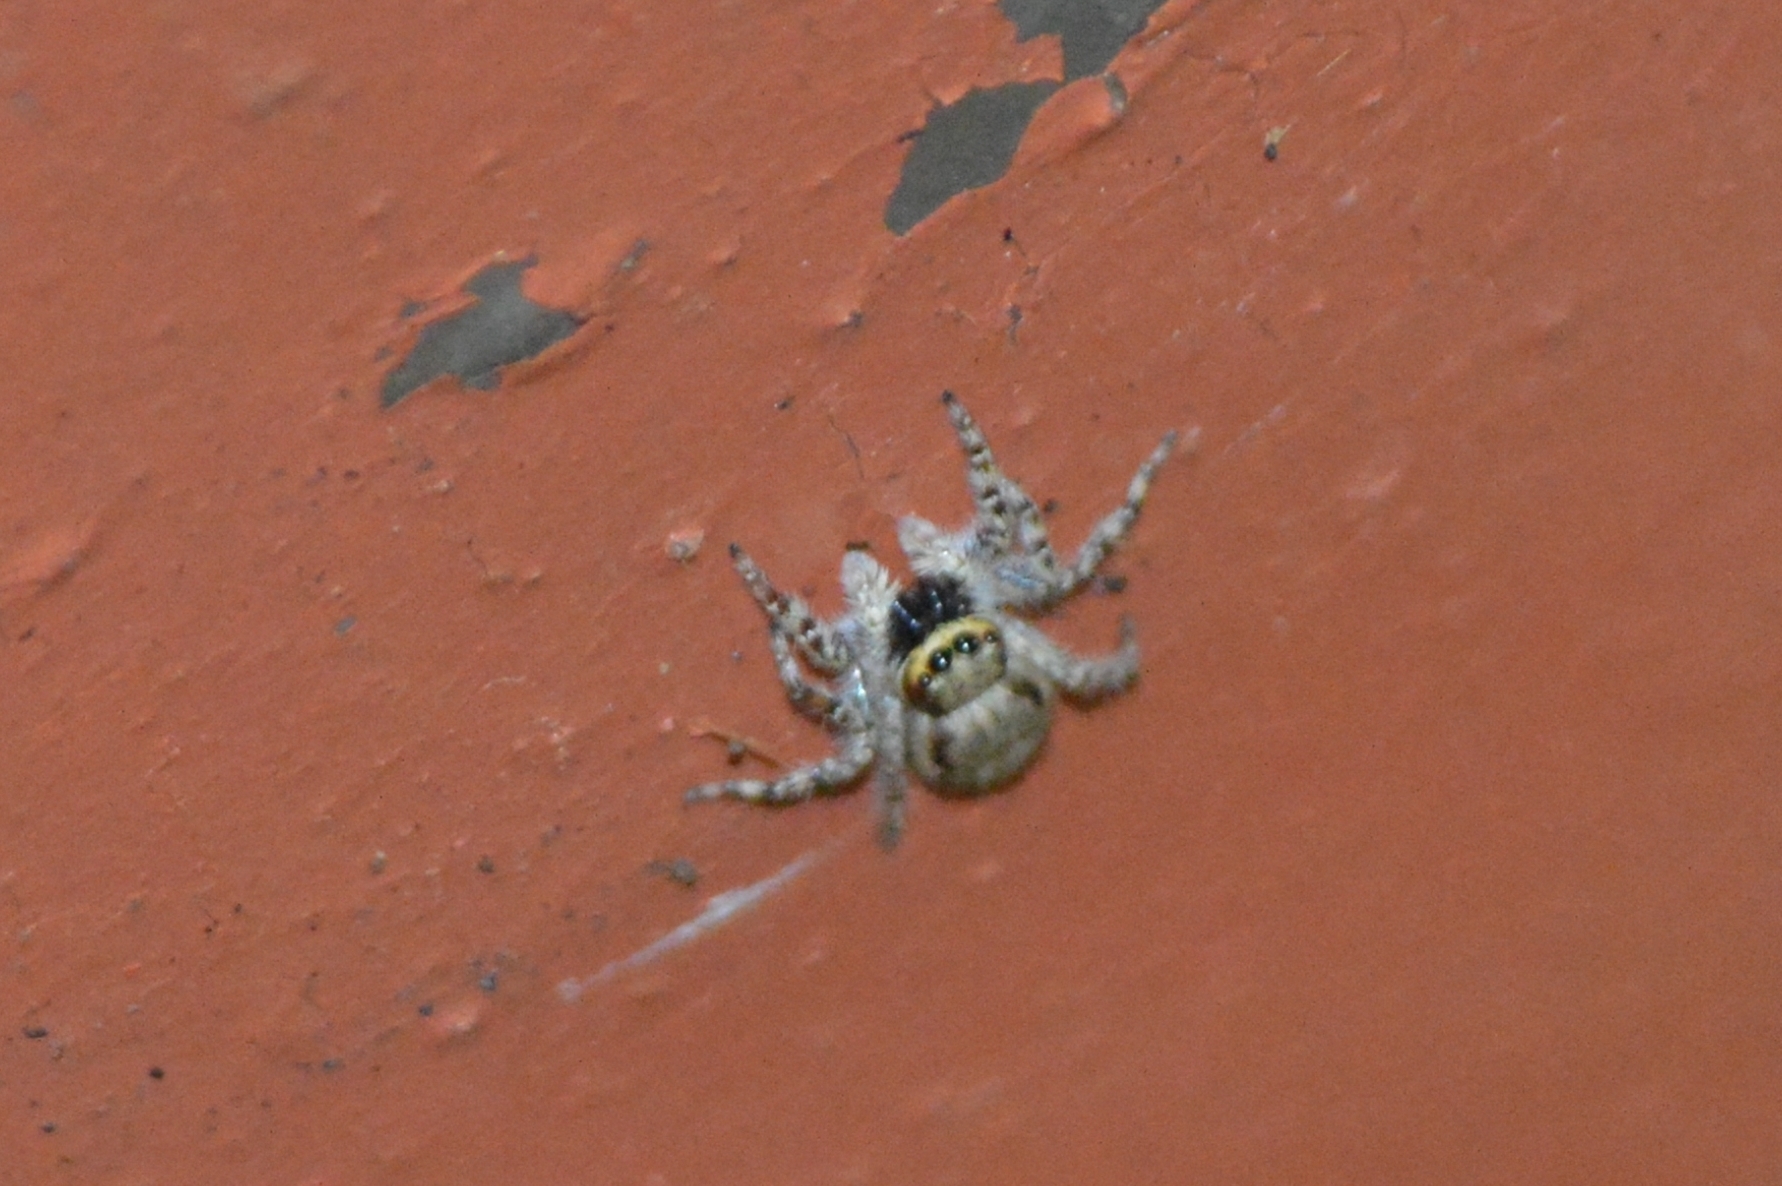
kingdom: Animalia
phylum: Arthropoda
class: Arachnida
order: Araneae
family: Salticidae
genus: Menemerus
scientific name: Menemerus bivittatus
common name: Gray wall jumper
